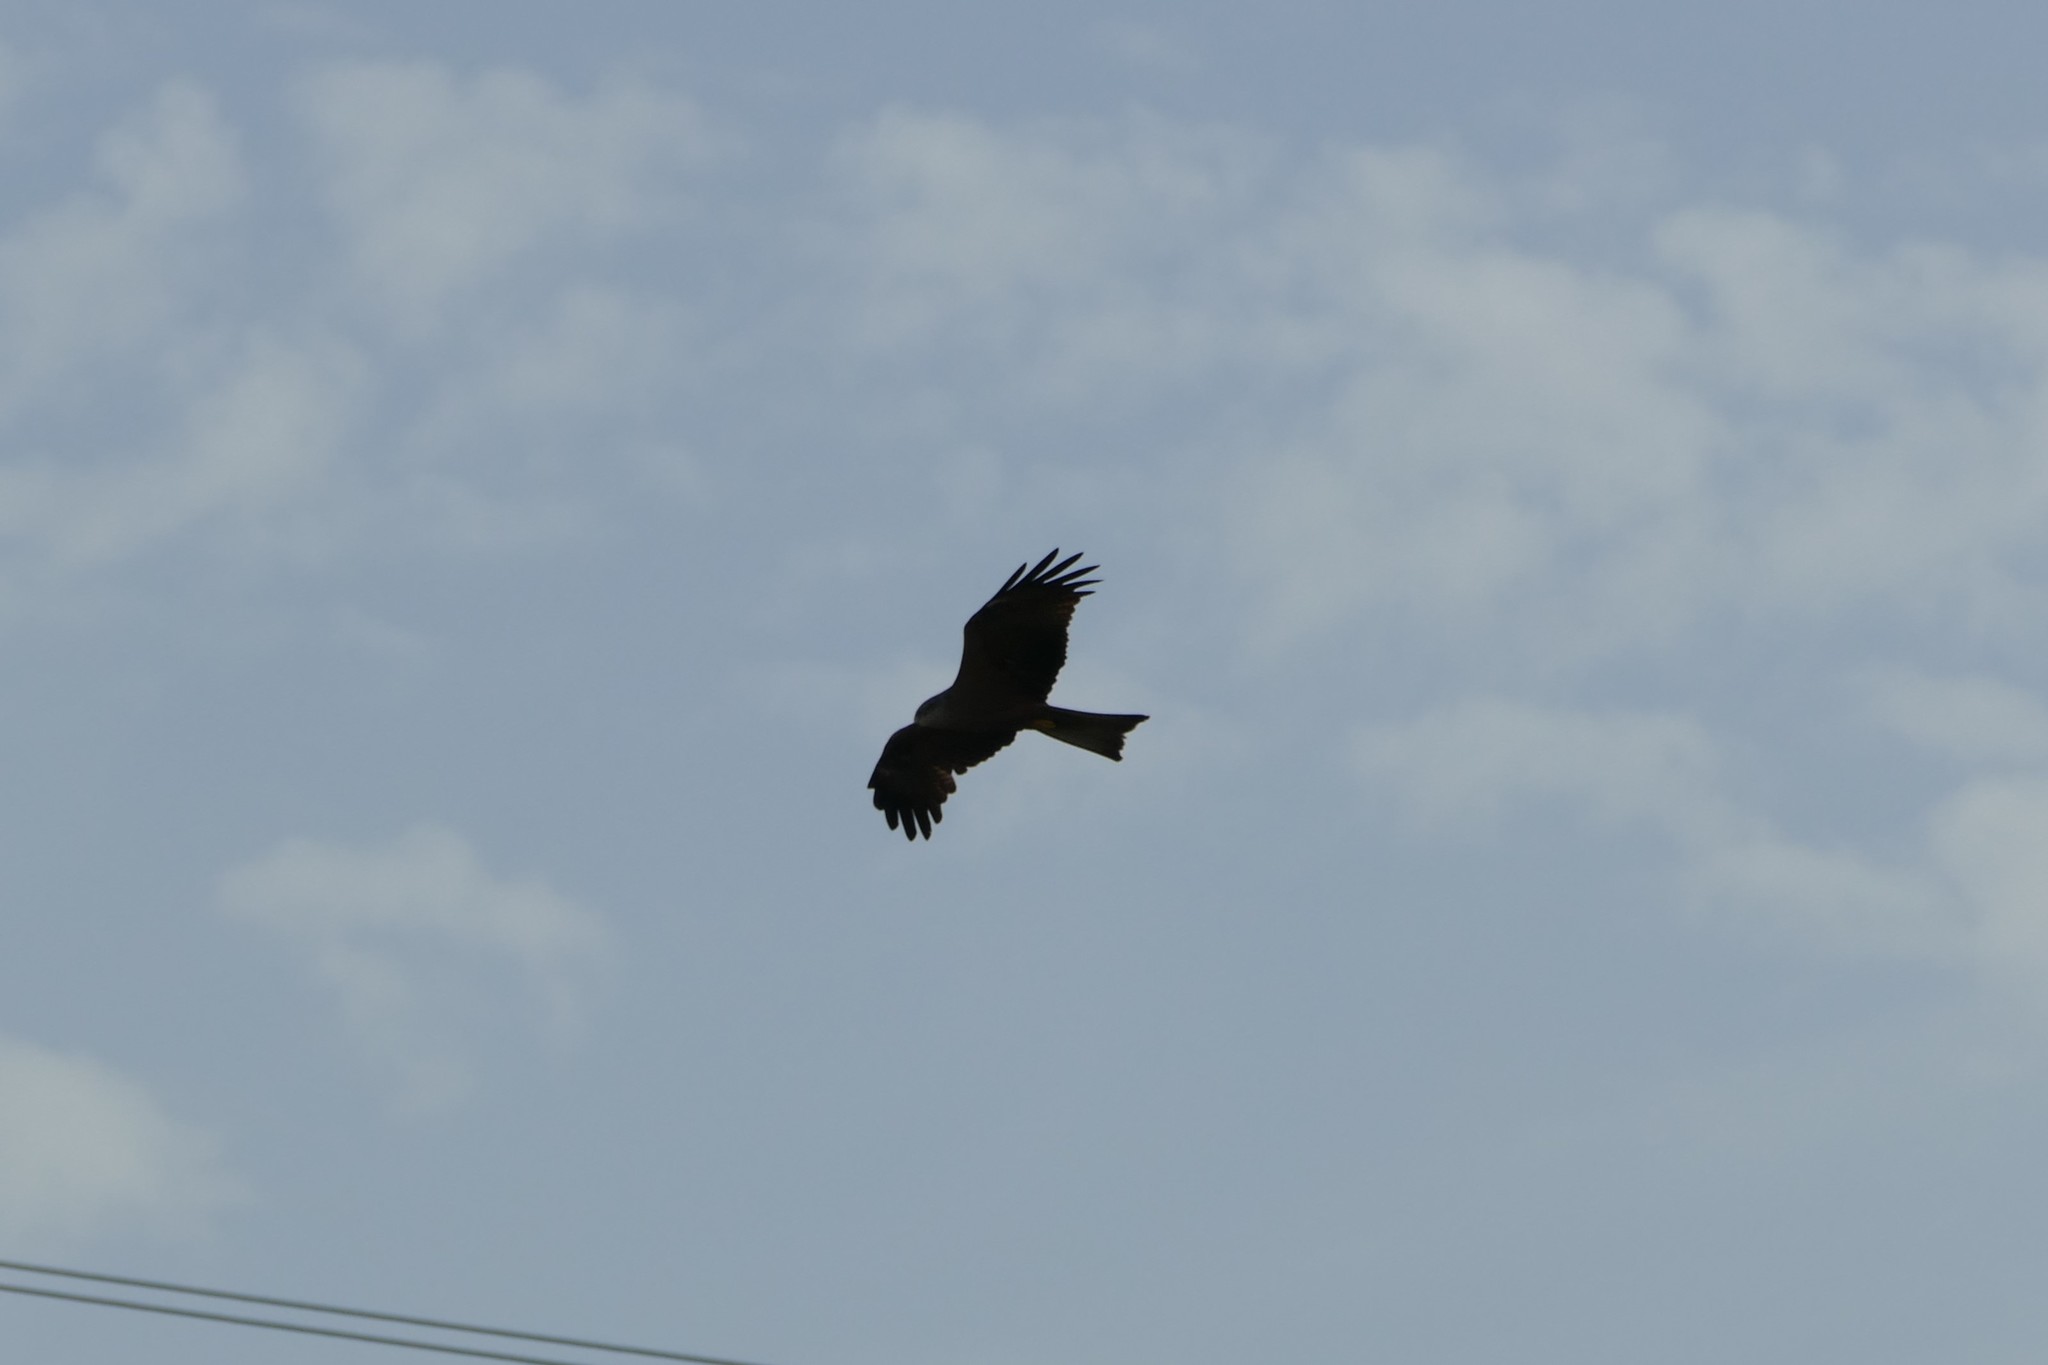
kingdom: Animalia
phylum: Chordata
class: Aves
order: Accipitriformes
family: Accipitridae
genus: Milvus
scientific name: Milvus migrans
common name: Black kite
